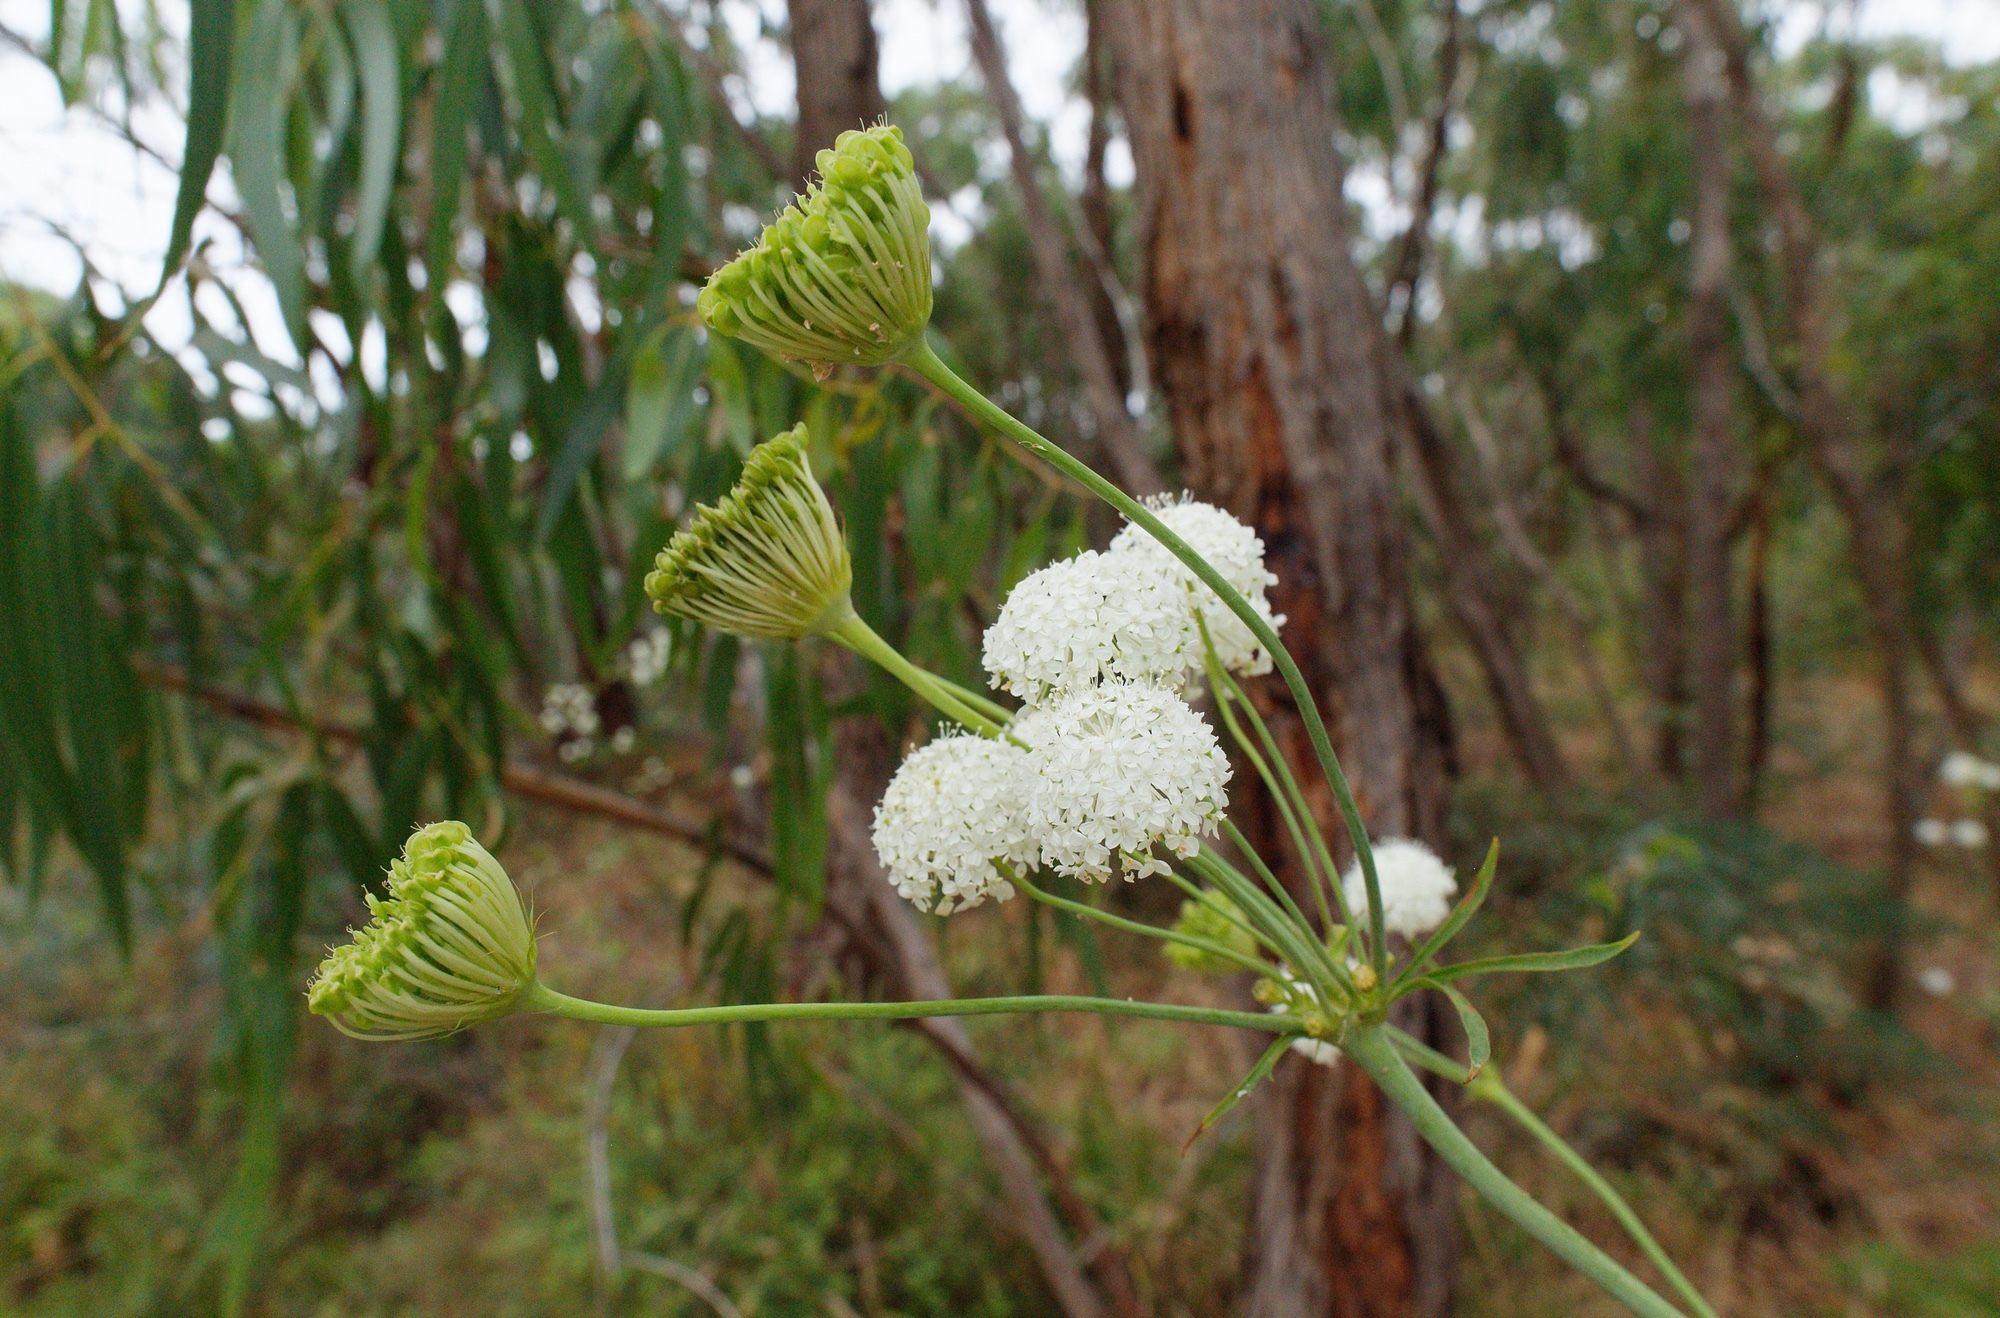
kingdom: Plantae
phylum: Tracheophyta
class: Magnoliopsida
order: Apiales
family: Araliaceae
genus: Trachymene
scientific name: Trachymene composita
